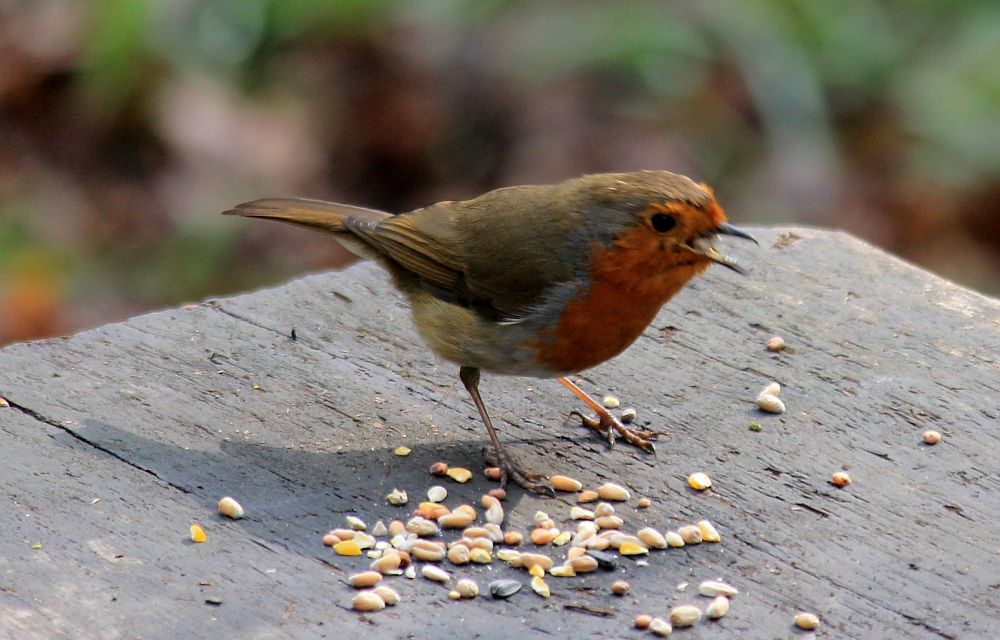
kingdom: Animalia
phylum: Chordata
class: Aves
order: Passeriformes
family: Muscicapidae
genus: Erithacus
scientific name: Erithacus rubecula
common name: European robin
